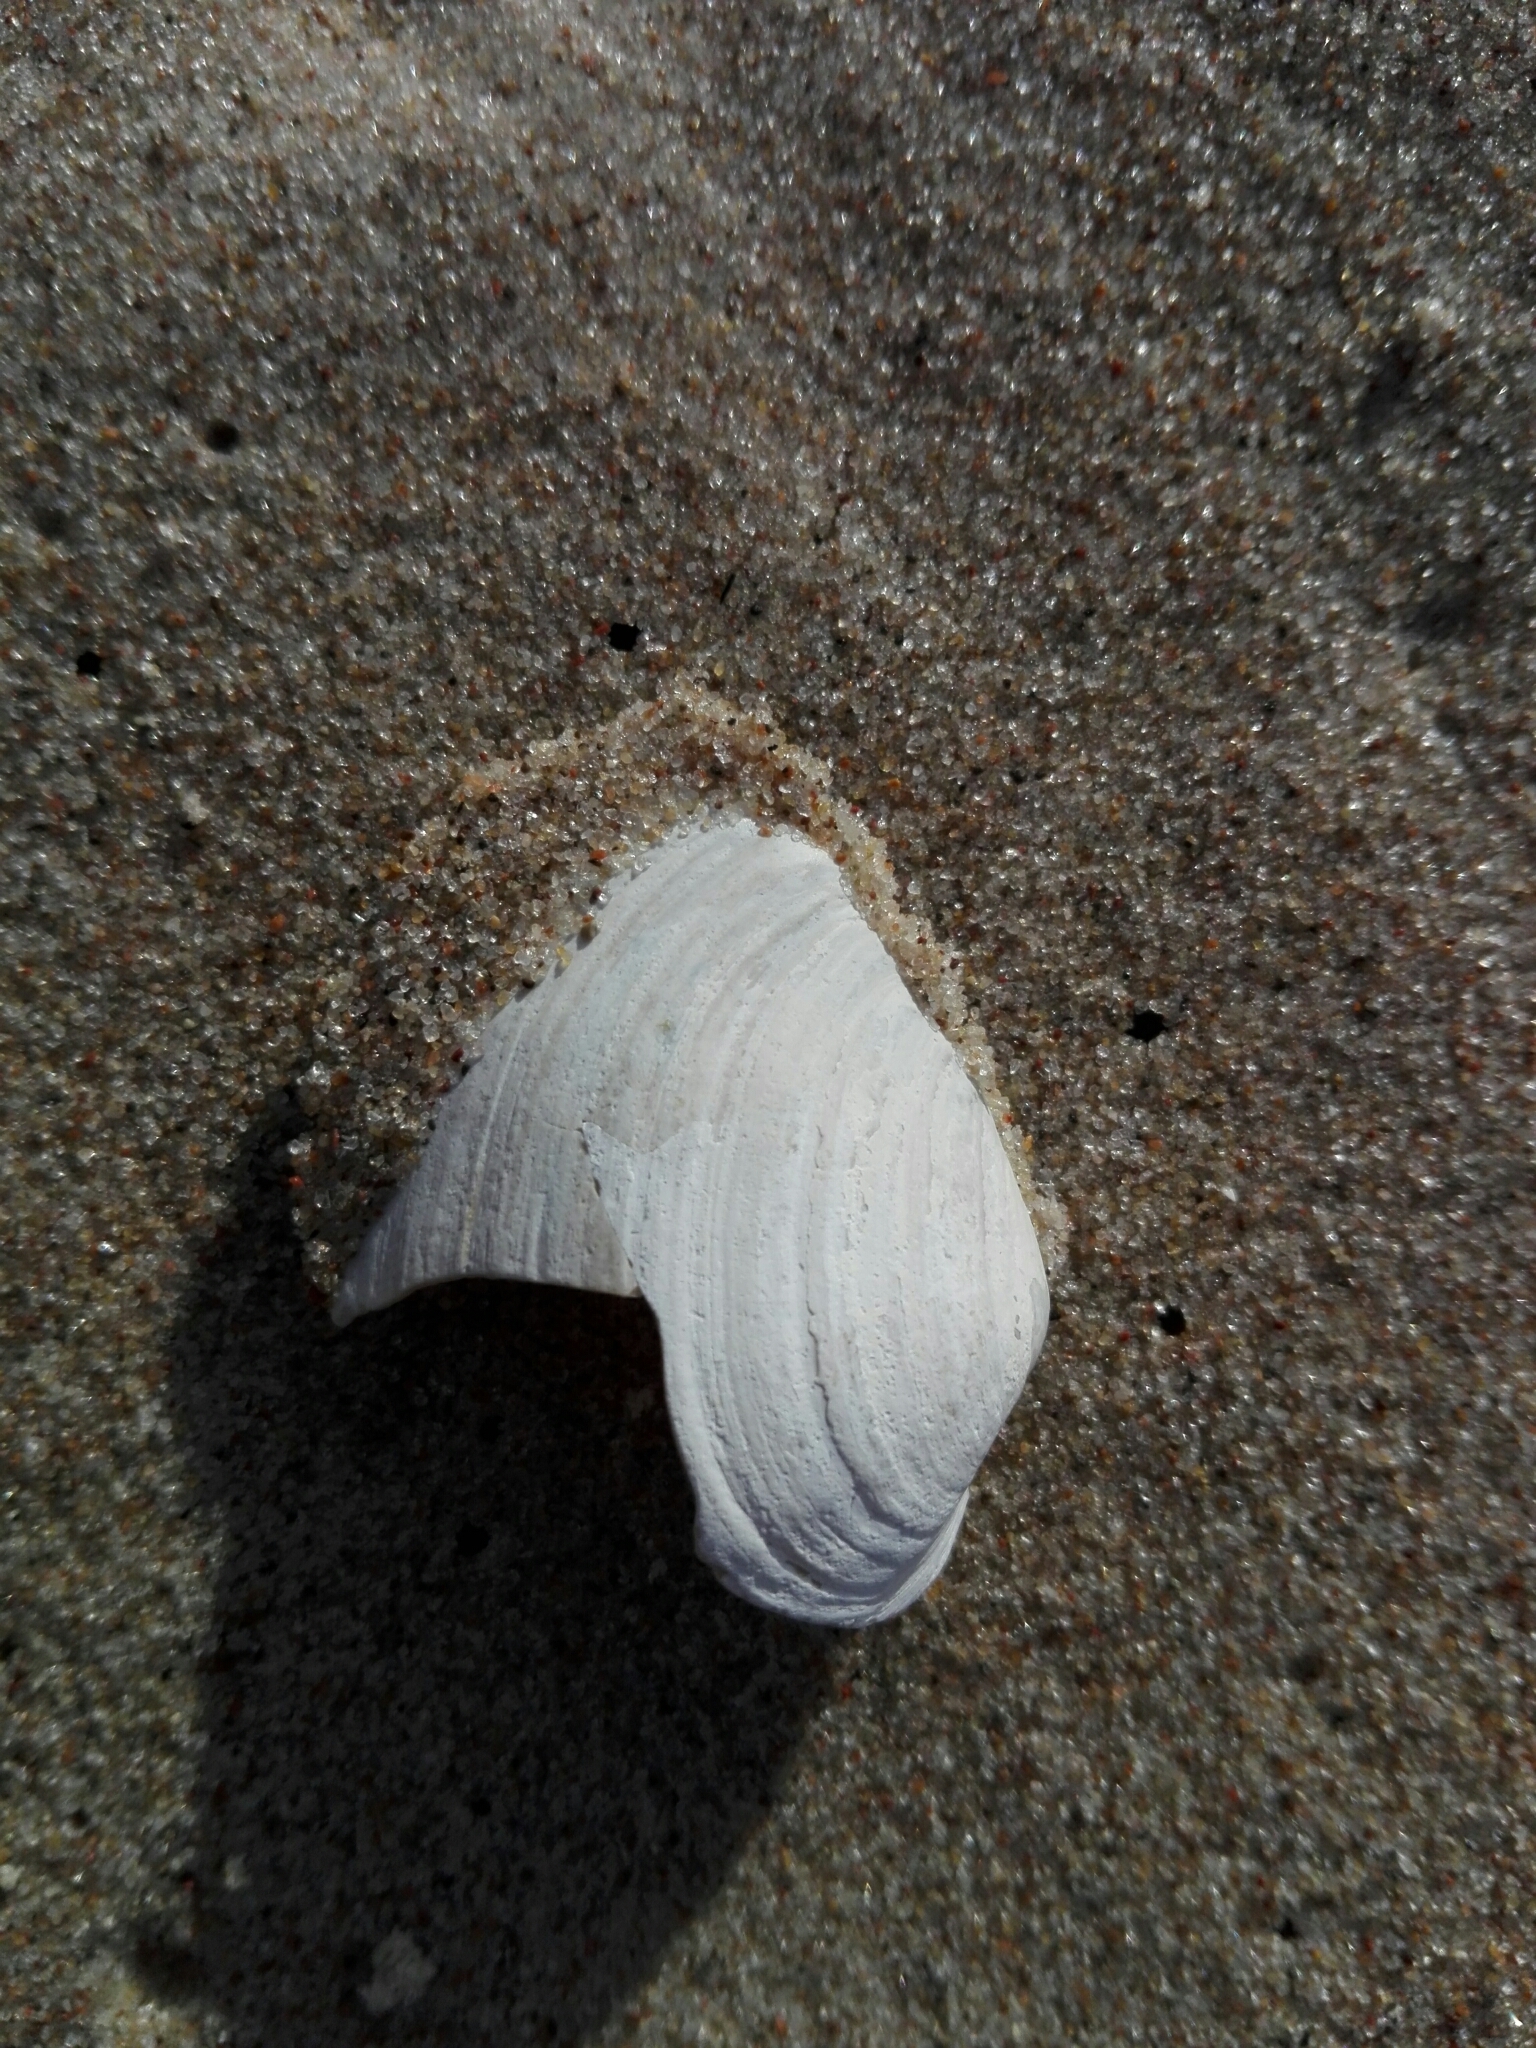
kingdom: Animalia
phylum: Mollusca
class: Bivalvia
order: Myida
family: Myidae
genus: Mya
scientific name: Mya arenaria
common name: Soft-shelled clam
